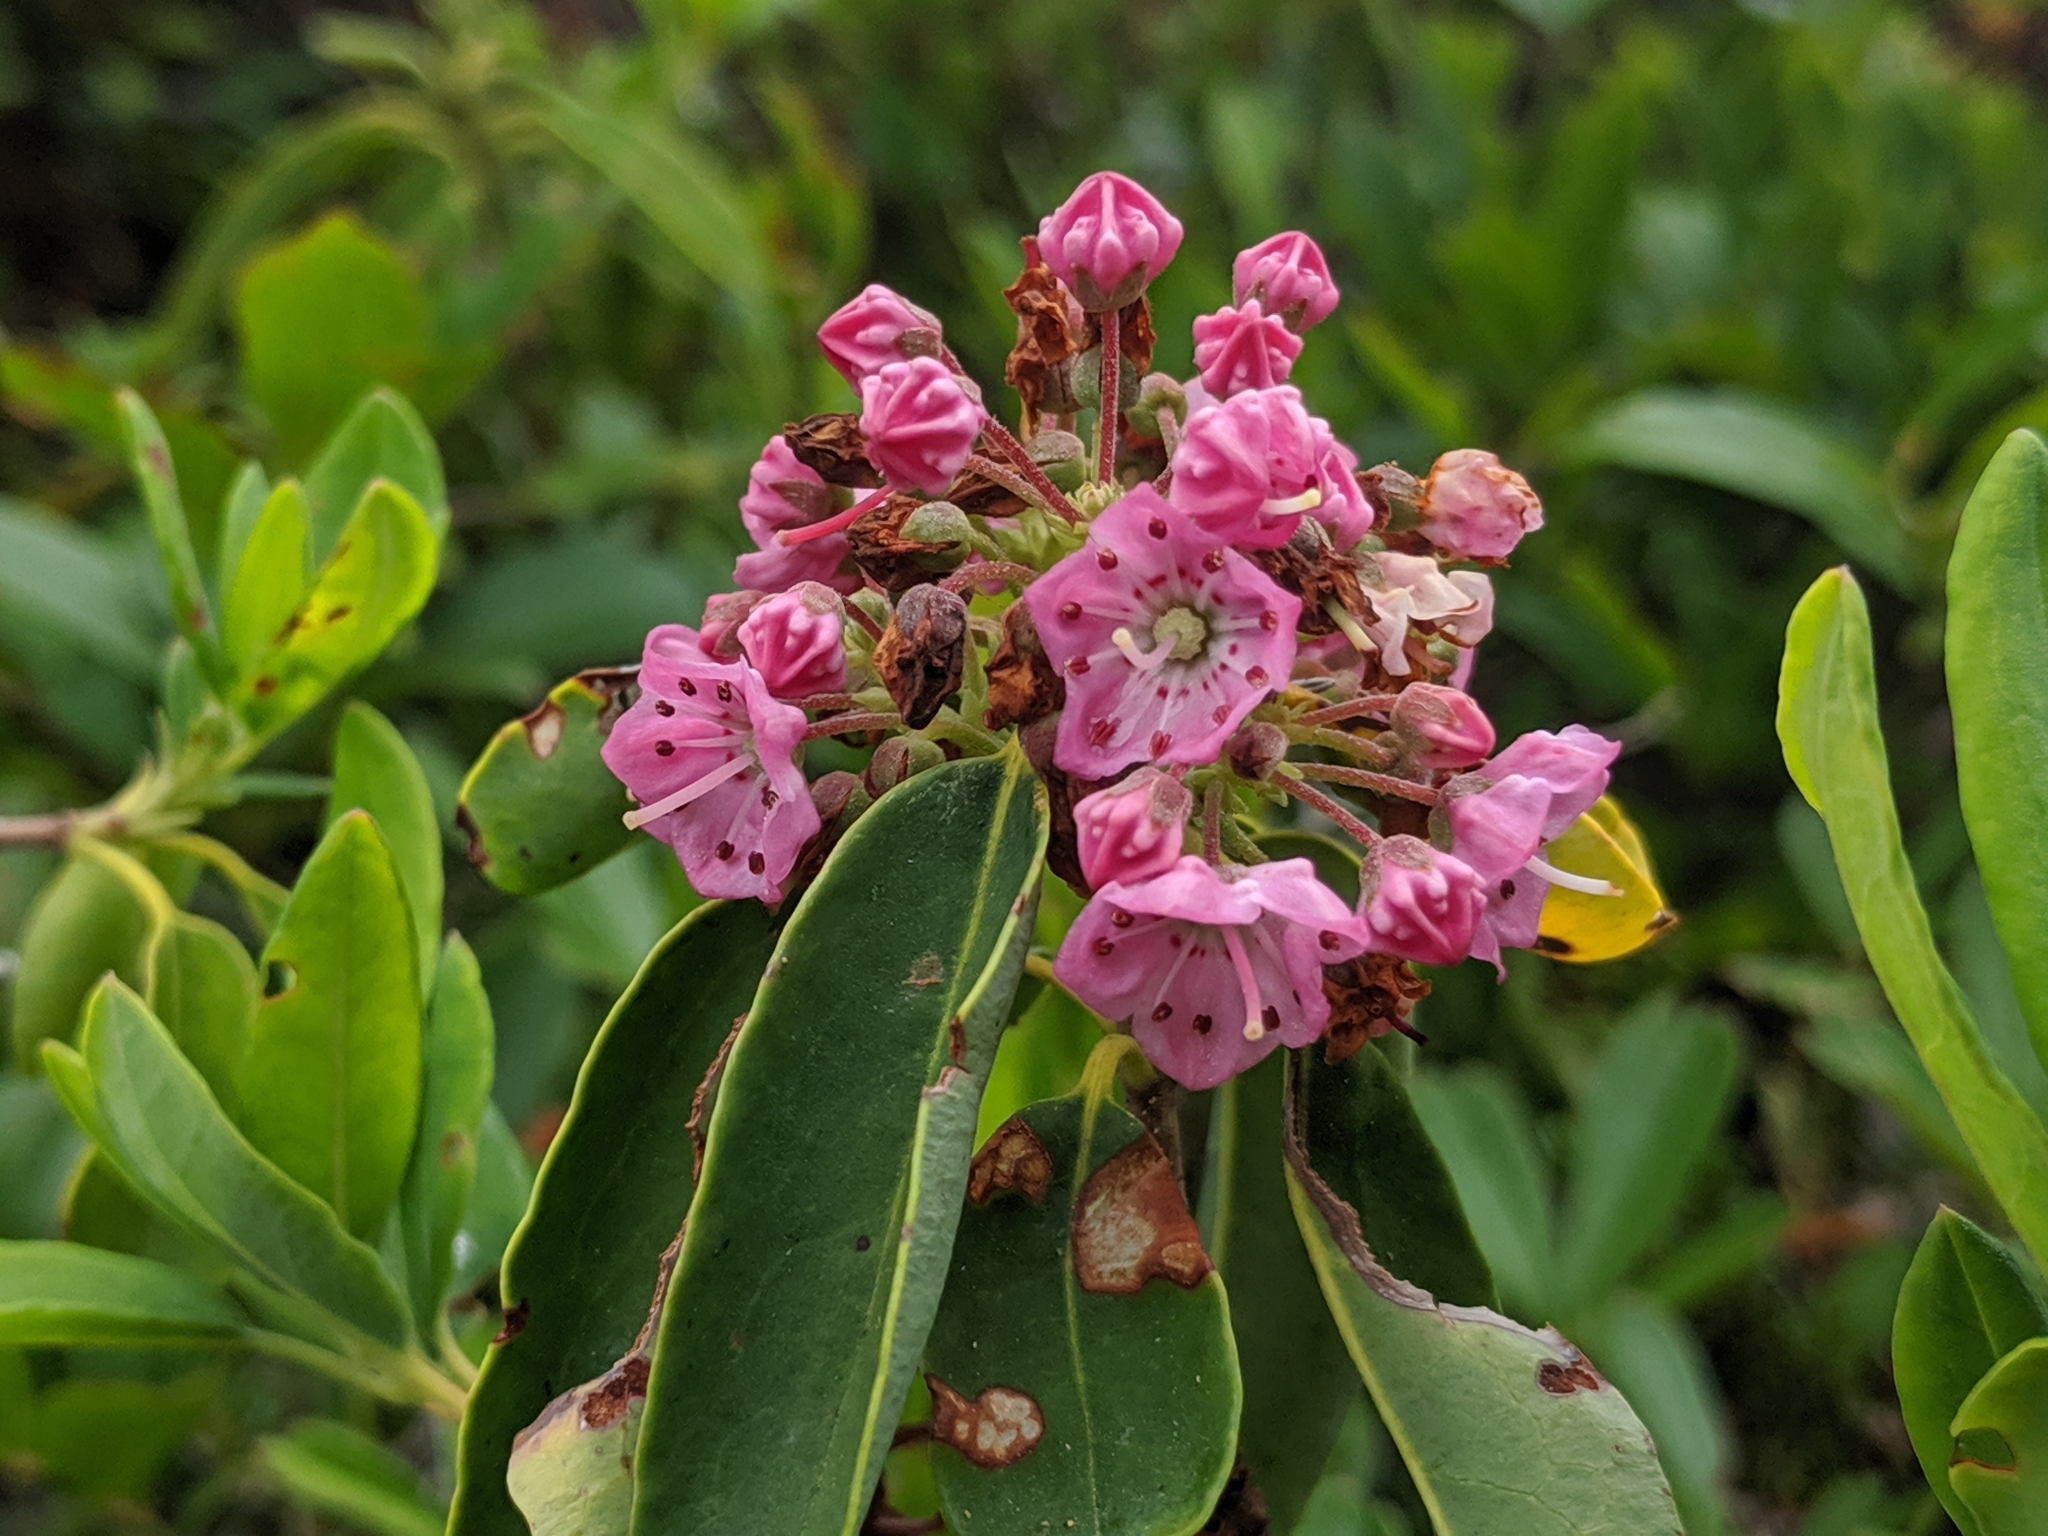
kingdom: Plantae
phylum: Tracheophyta
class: Magnoliopsida
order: Ericales
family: Ericaceae
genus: Kalmia
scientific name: Kalmia angustifolia
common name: Sheep-laurel
